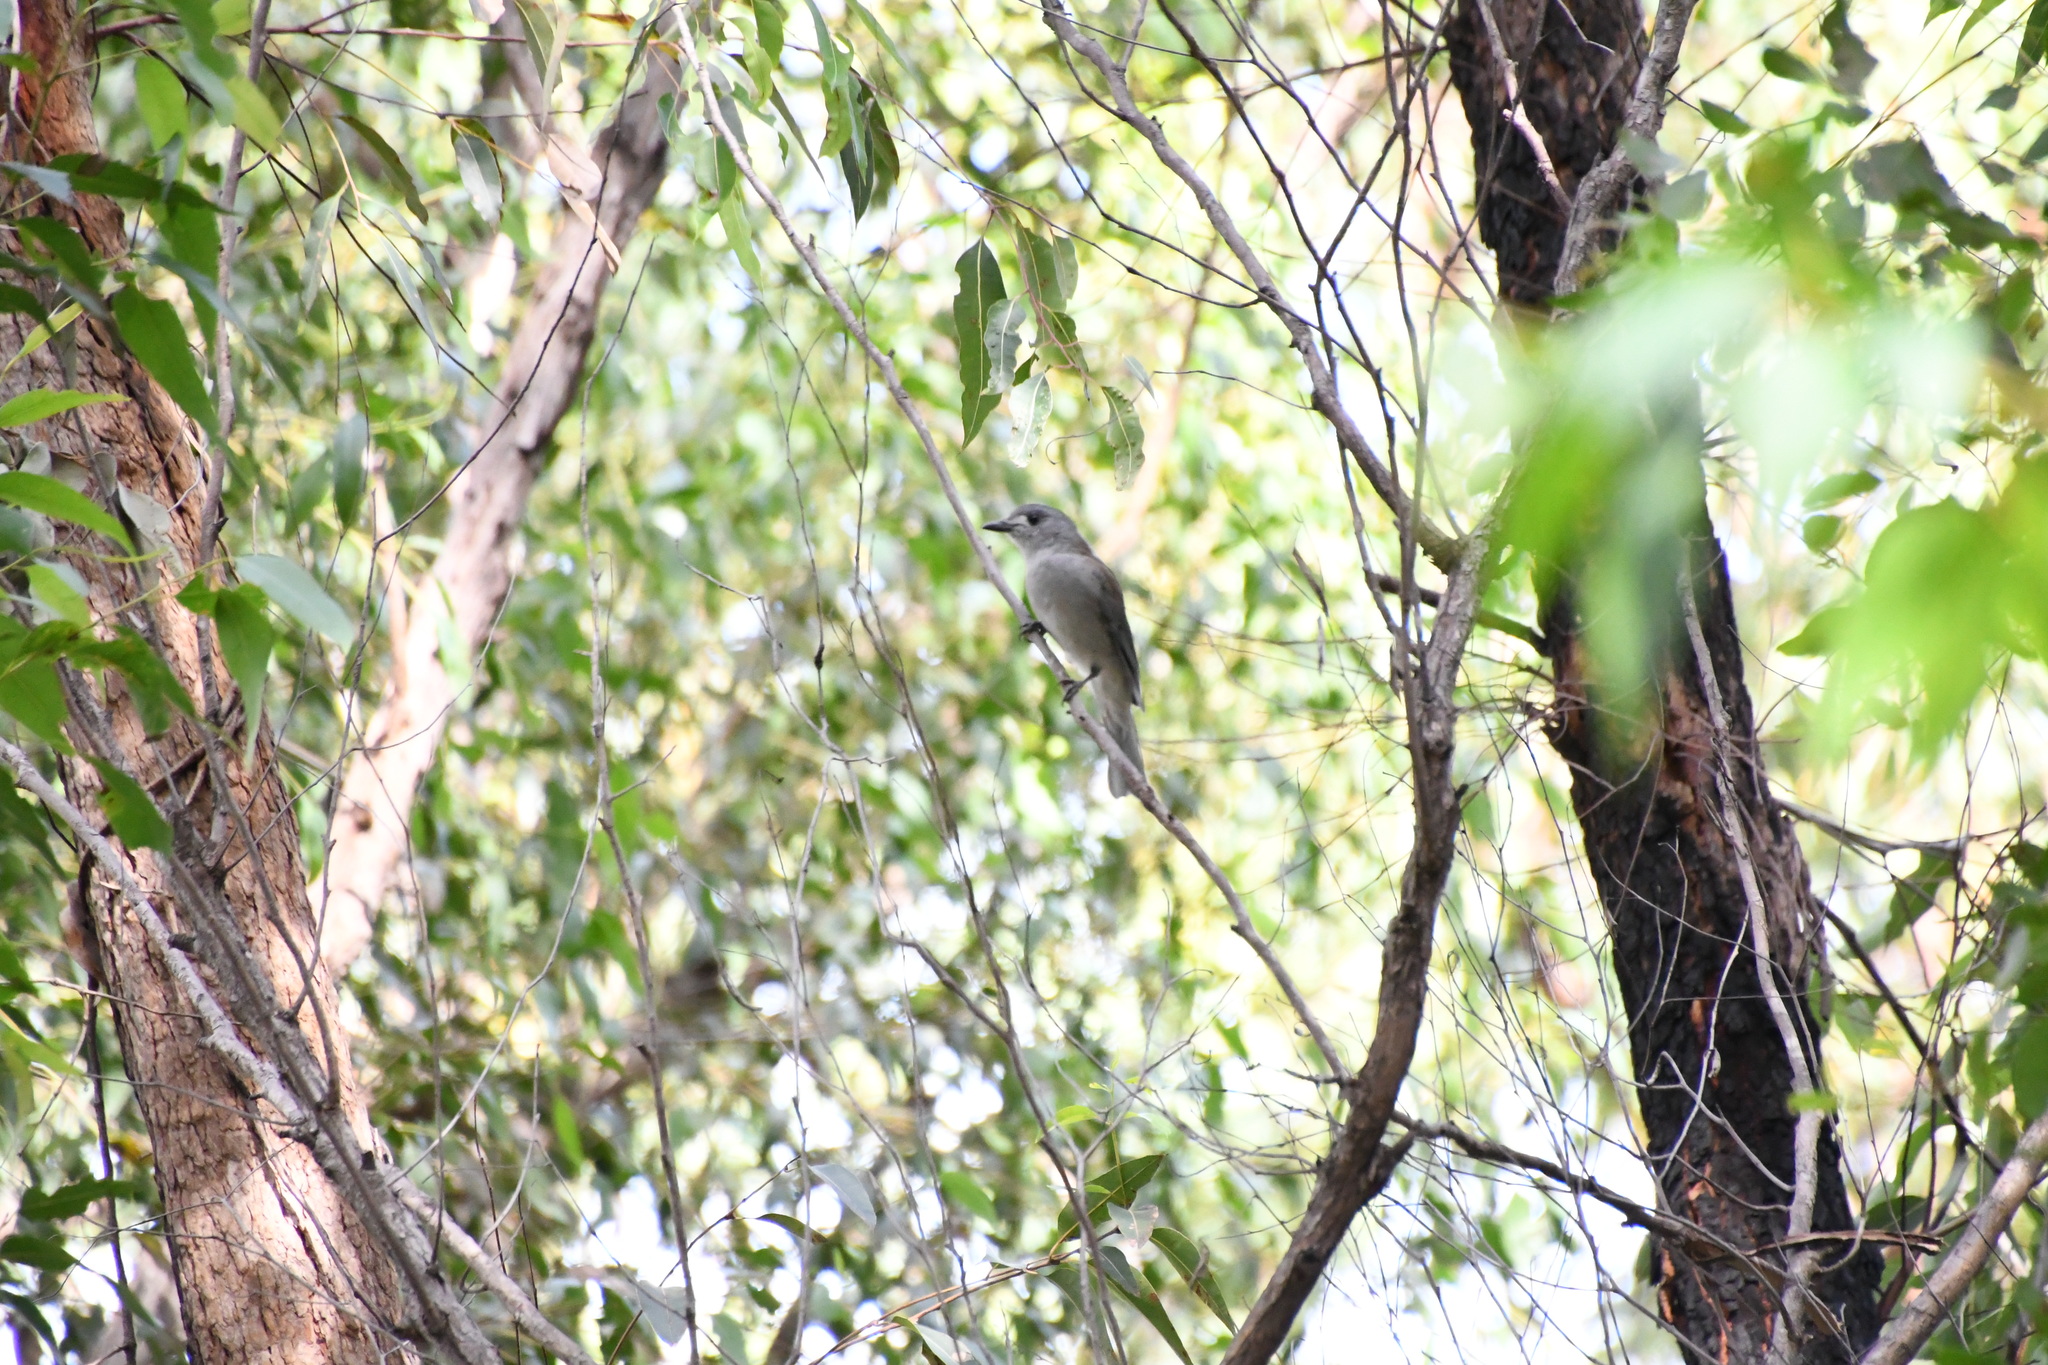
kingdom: Animalia
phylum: Chordata
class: Aves
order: Passeriformes
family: Pachycephalidae
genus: Colluricincla
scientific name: Colluricincla harmonica
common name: Grey shrikethrush
